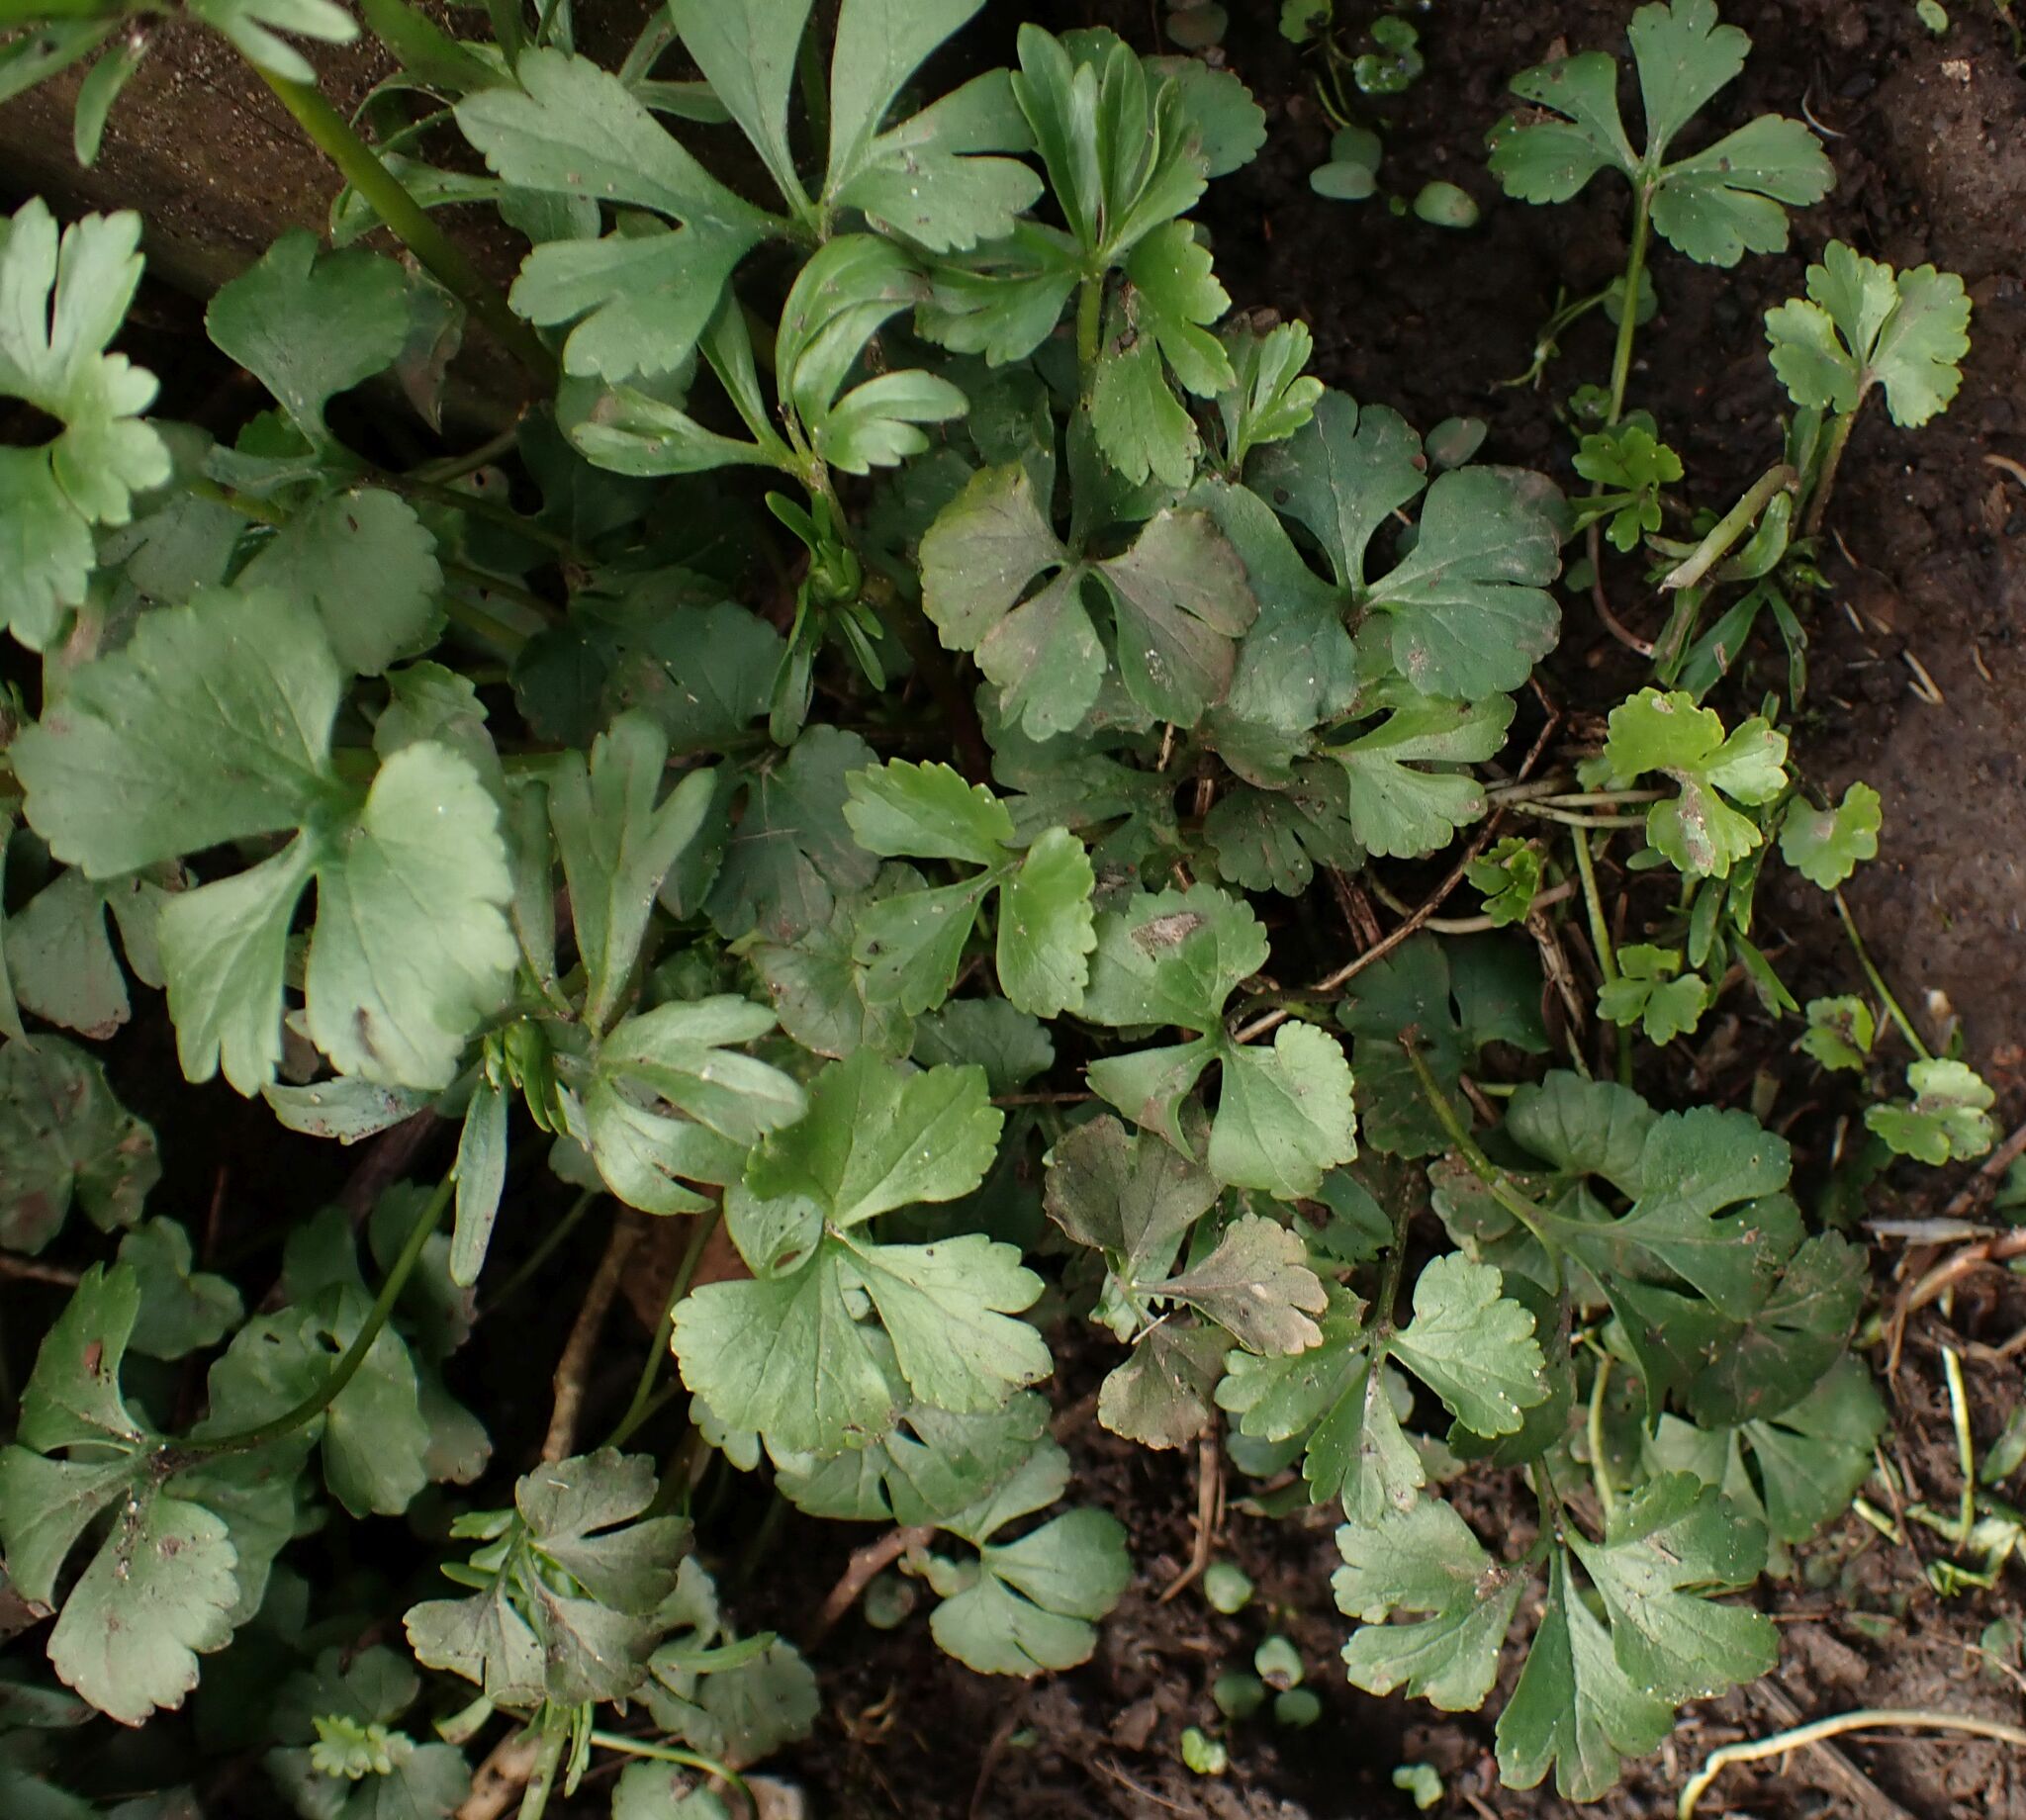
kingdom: Plantae
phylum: Tracheophyta
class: Magnoliopsida
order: Ranunculales
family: Ranunculaceae
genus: Ranunculus
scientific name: Ranunculus auricomus
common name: Goldilocks buttercup
